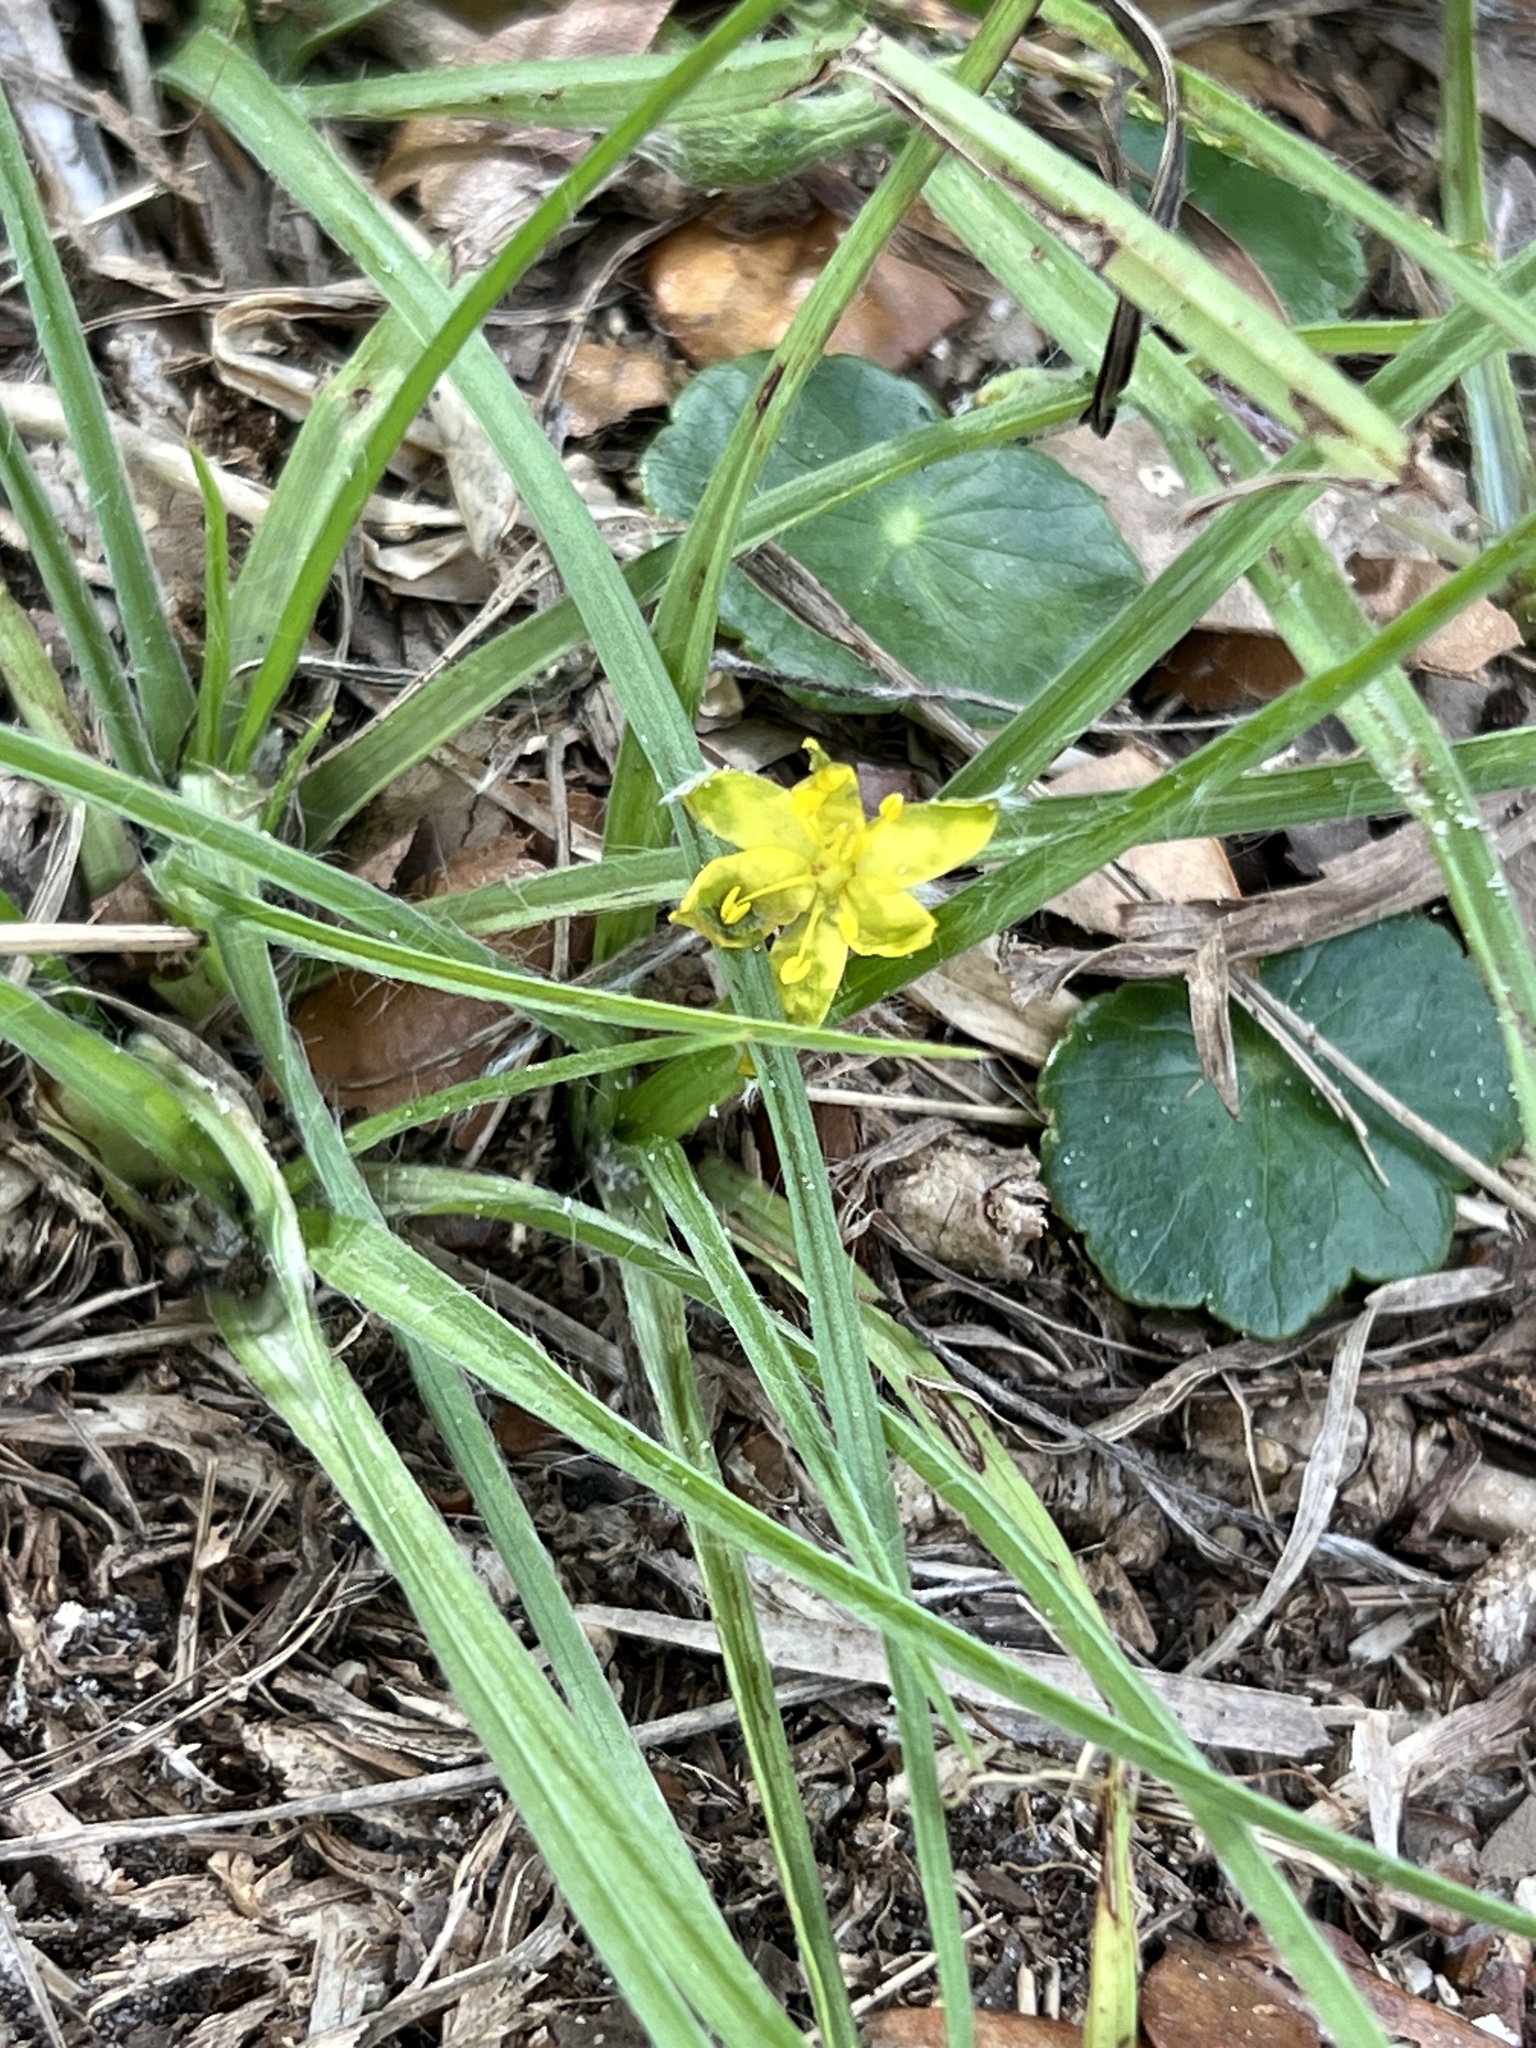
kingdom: Plantae
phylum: Tracheophyta
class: Liliopsida
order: Asparagales
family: Hypoxidaceae
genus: Hypoxis
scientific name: Hypoxis hirsuta
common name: Common goldstar
